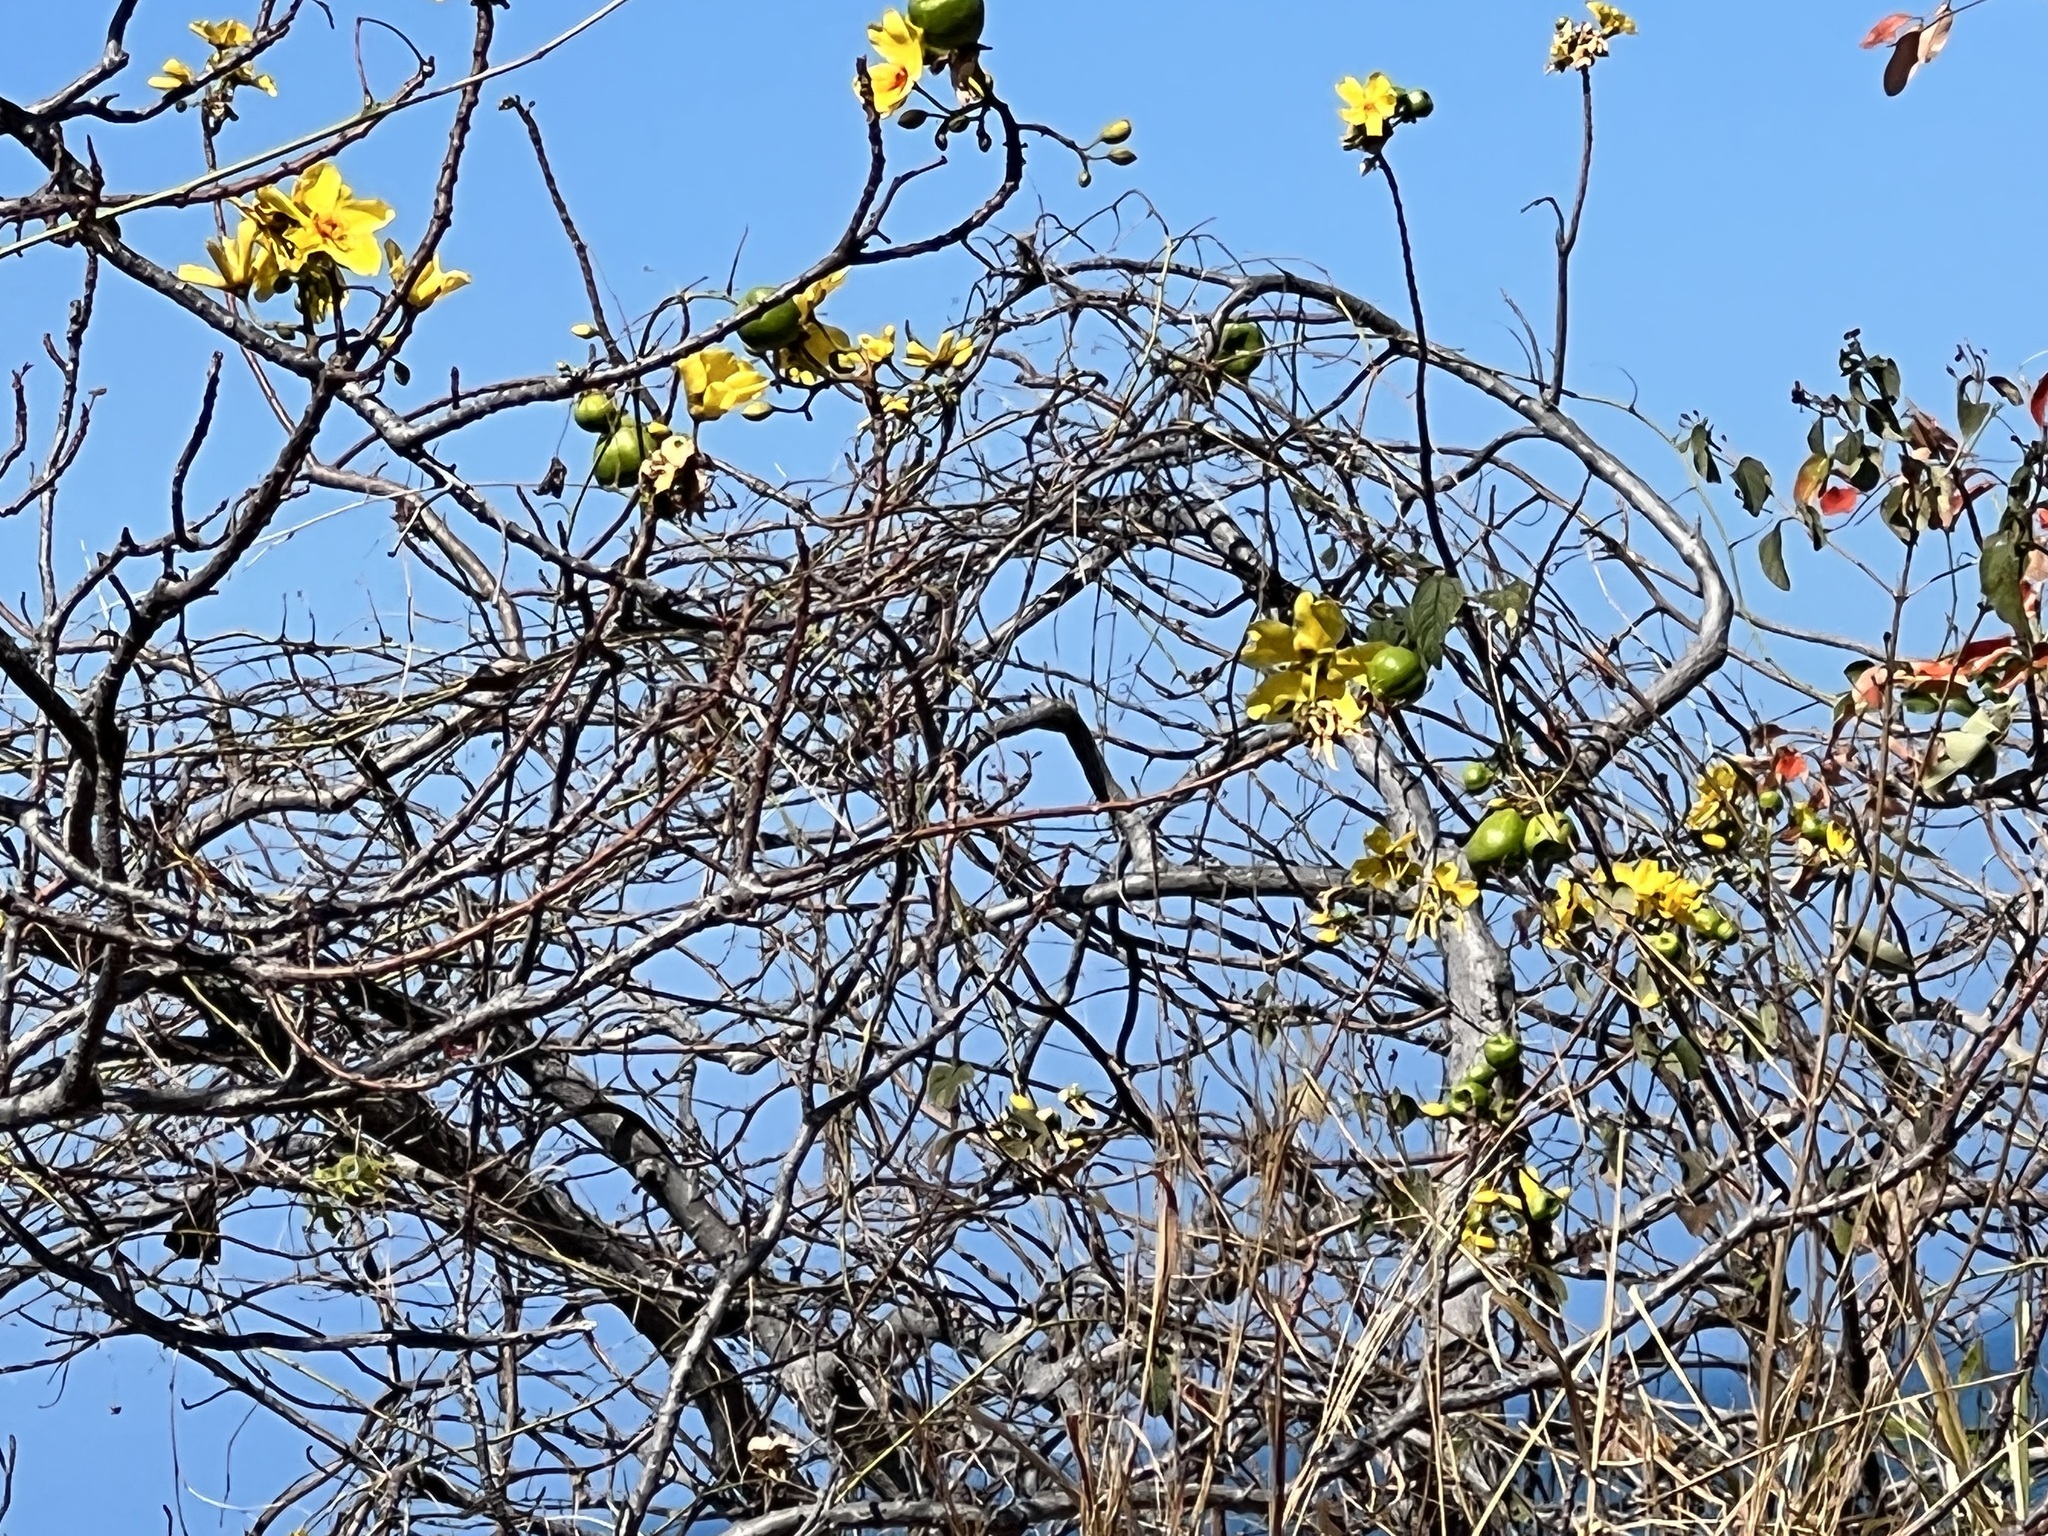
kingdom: Plantae
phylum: Tracheophyta
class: Magnoliopsida
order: Malvales
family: Cochlospermaceae
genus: Cochlospermum
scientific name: Cochlospermum gillivraei
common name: Cottontree
